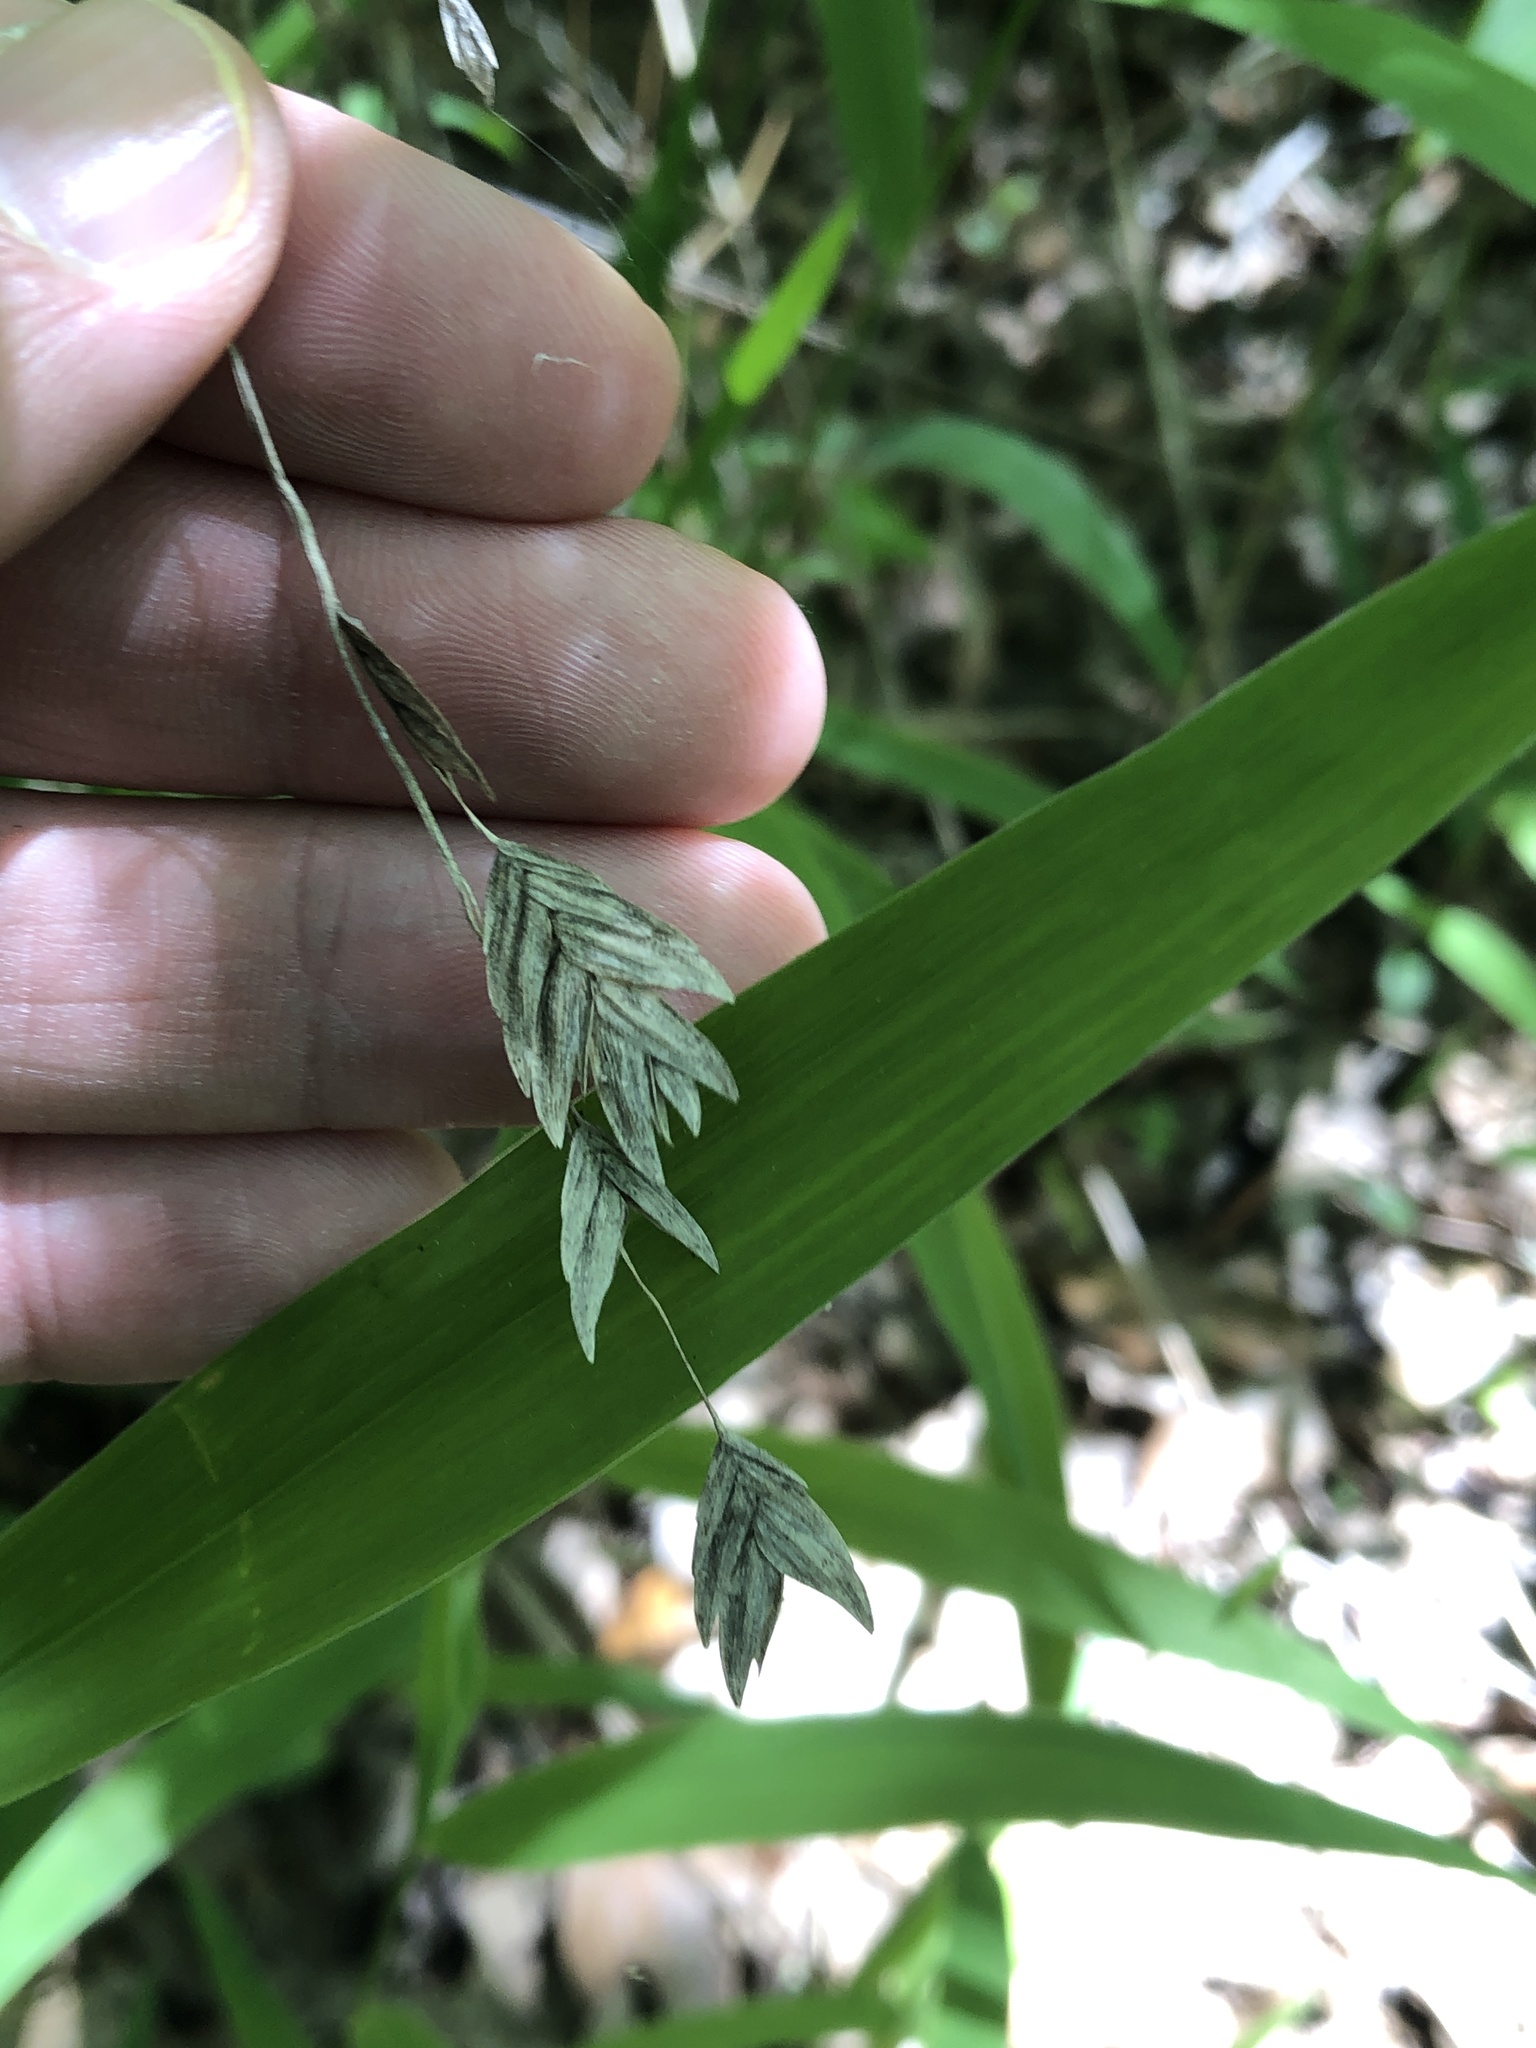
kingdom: Plantae
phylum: Tracheophyta
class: Liliopsida
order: Poales
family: Poaceae
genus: Chasmanthium
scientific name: Chasmanthium latifolium
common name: Broad-leaved chasmanthium
